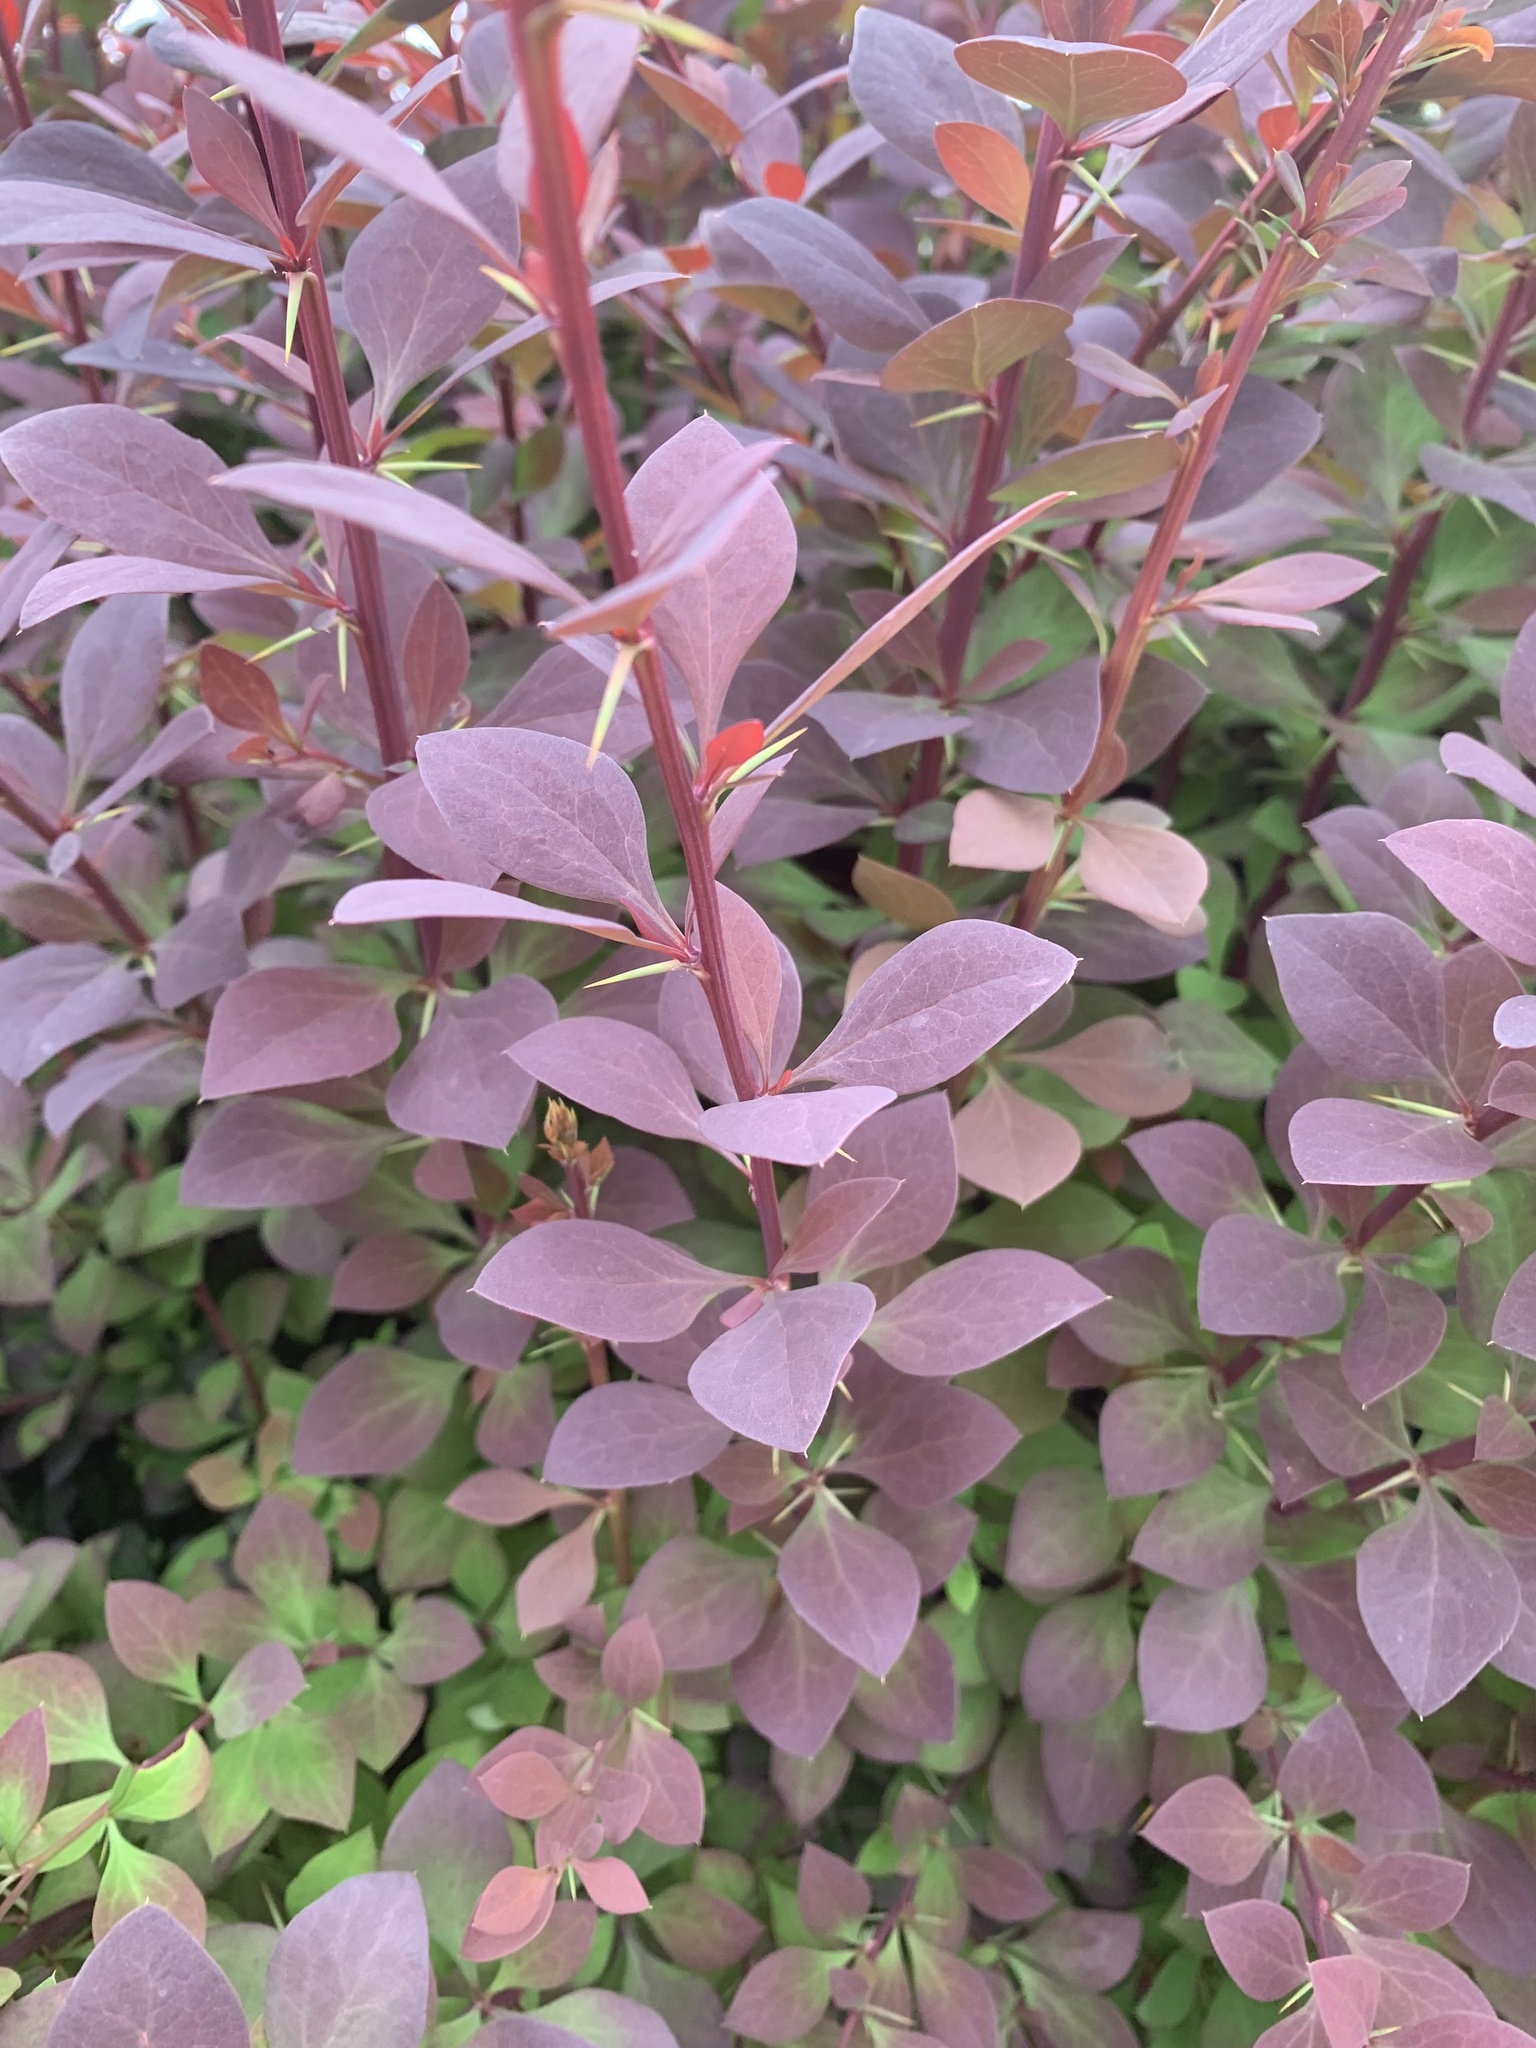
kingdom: Plantae
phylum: Tracheophyta
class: Magnoliopsida
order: Ranunculales
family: Berberidaceae
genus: Berberis
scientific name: Berberis thunbergii
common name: Japanese barberry
